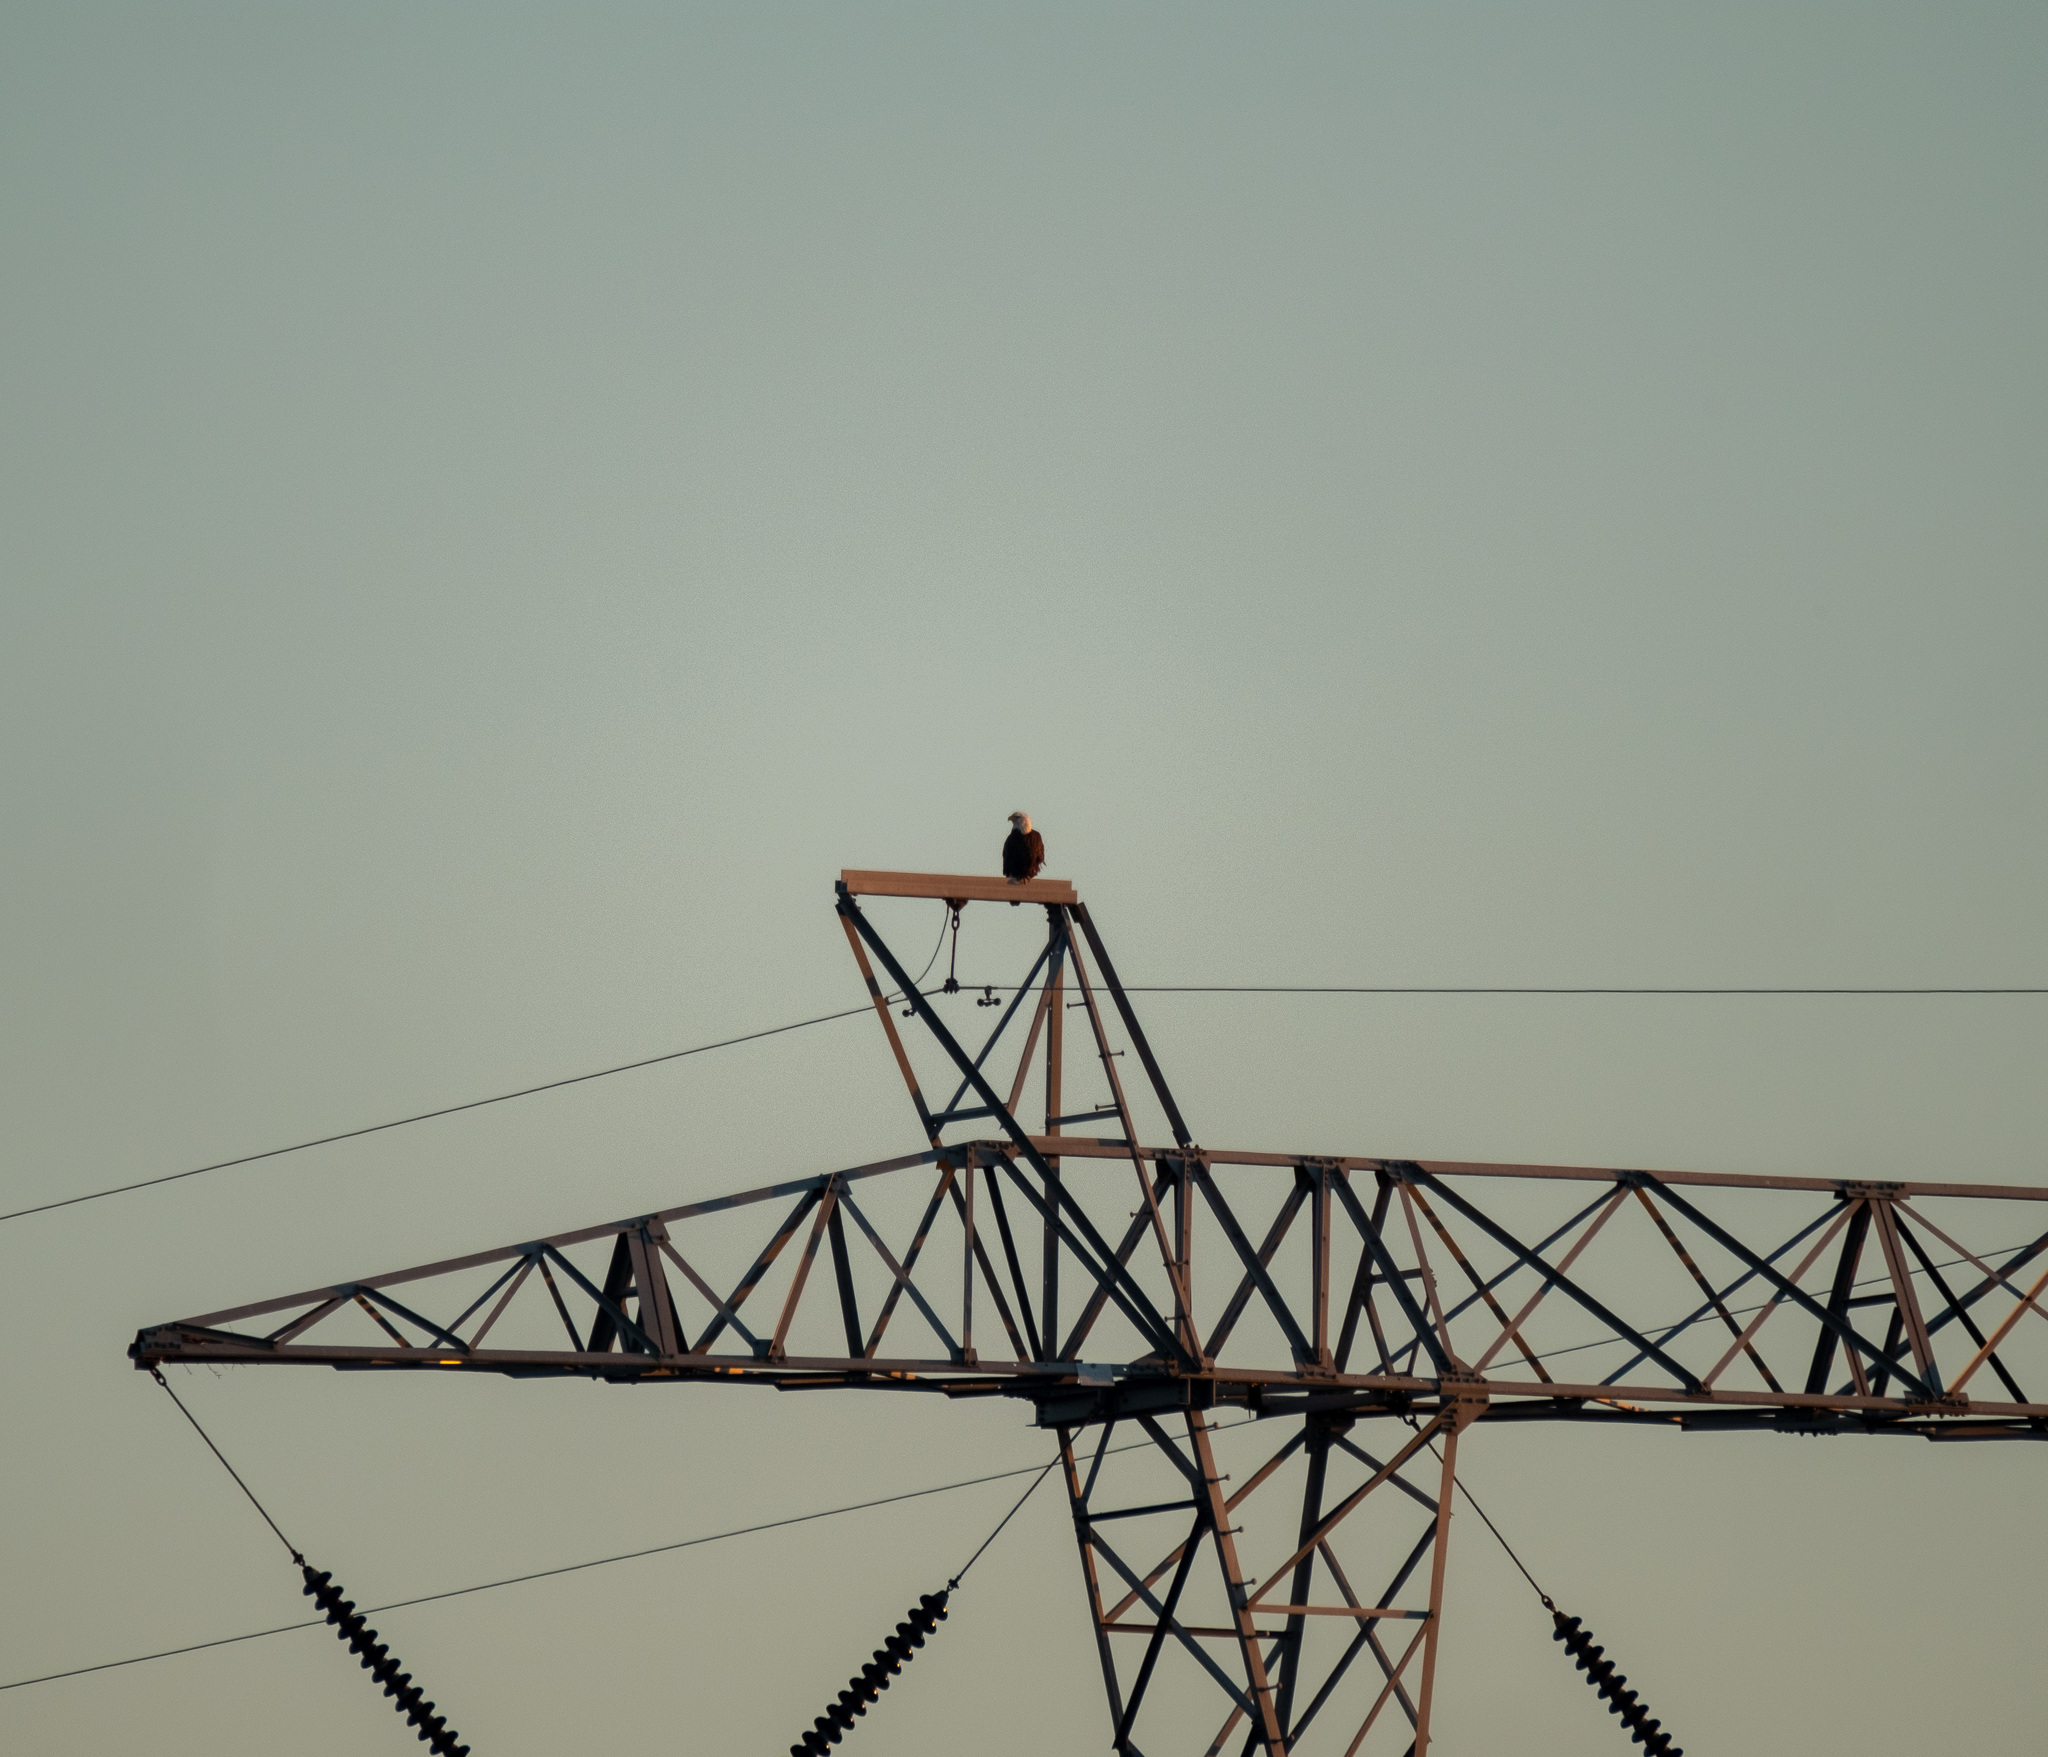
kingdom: Animalia
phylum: Chordata
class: Aves
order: Accipitriformes
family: Accipitridae
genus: Haliaeetus
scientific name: Haliaeetus leucocephalus
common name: Bald eagle
